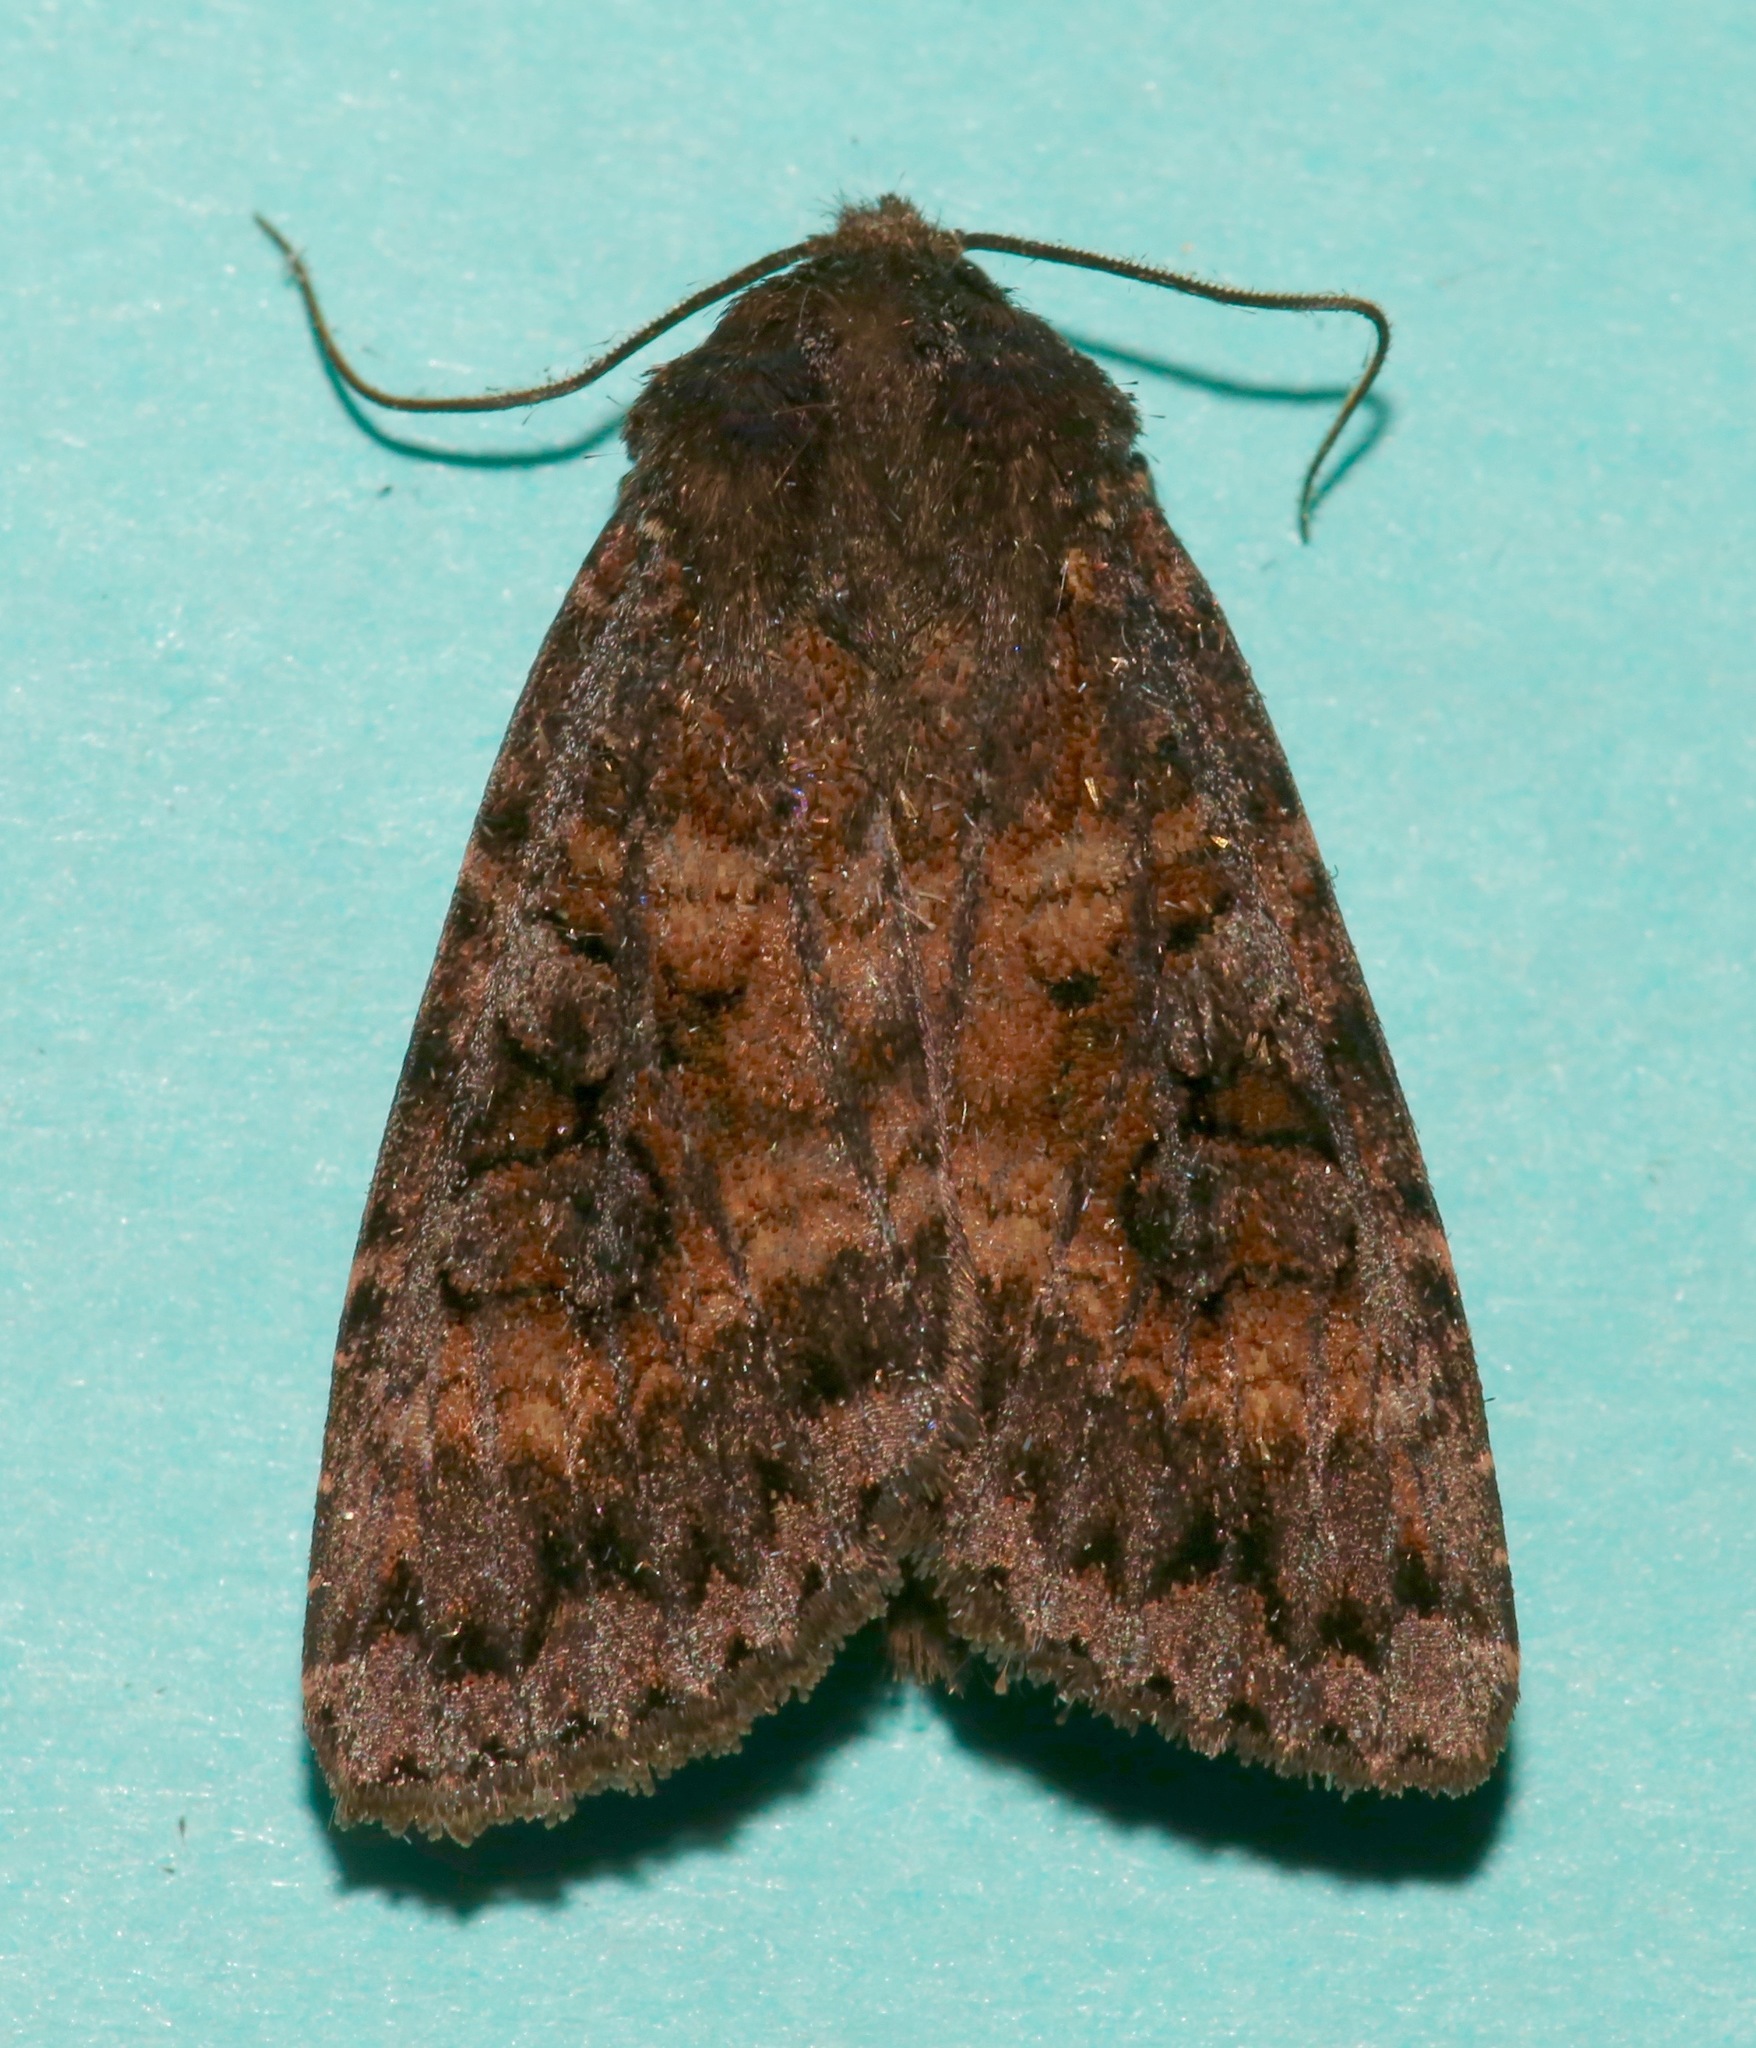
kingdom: Animalia
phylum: Arthropoda
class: Insecta
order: Lepidoptera
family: Noctuidae
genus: Eurois
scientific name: Eurois astricta
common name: Great brown dart
